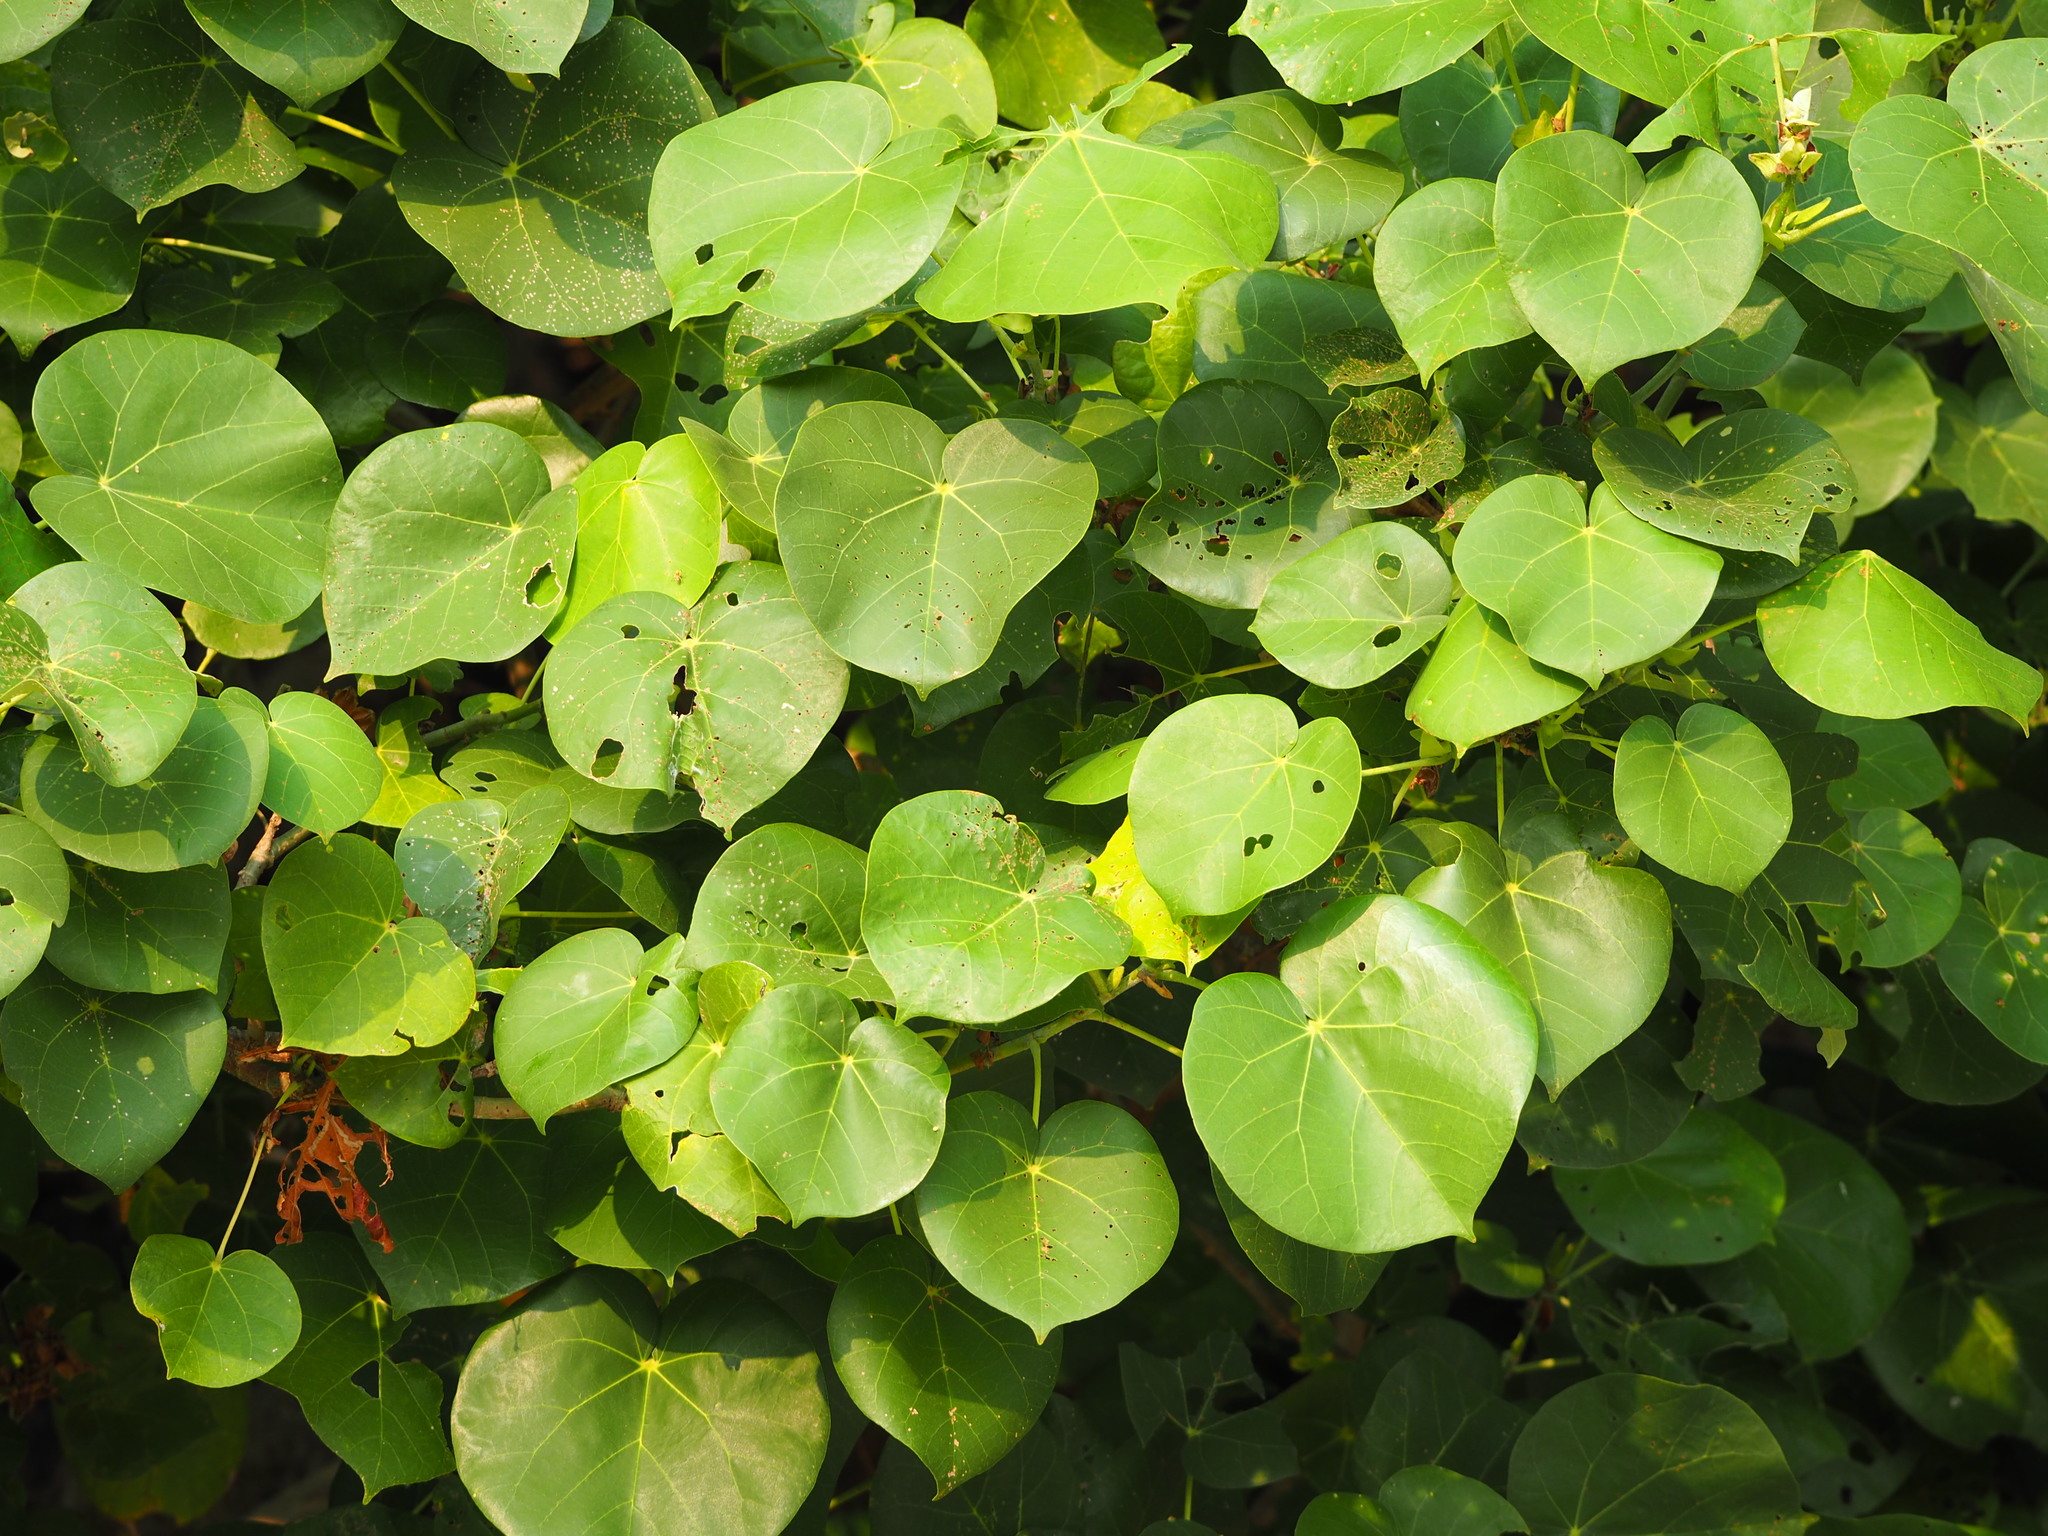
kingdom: Plantae
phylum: Tracheophyta
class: Magnoliopsida
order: Malvales
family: Malvaceae
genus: Talipariti
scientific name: Talipariti tiliaceum
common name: Sea hibiscus
